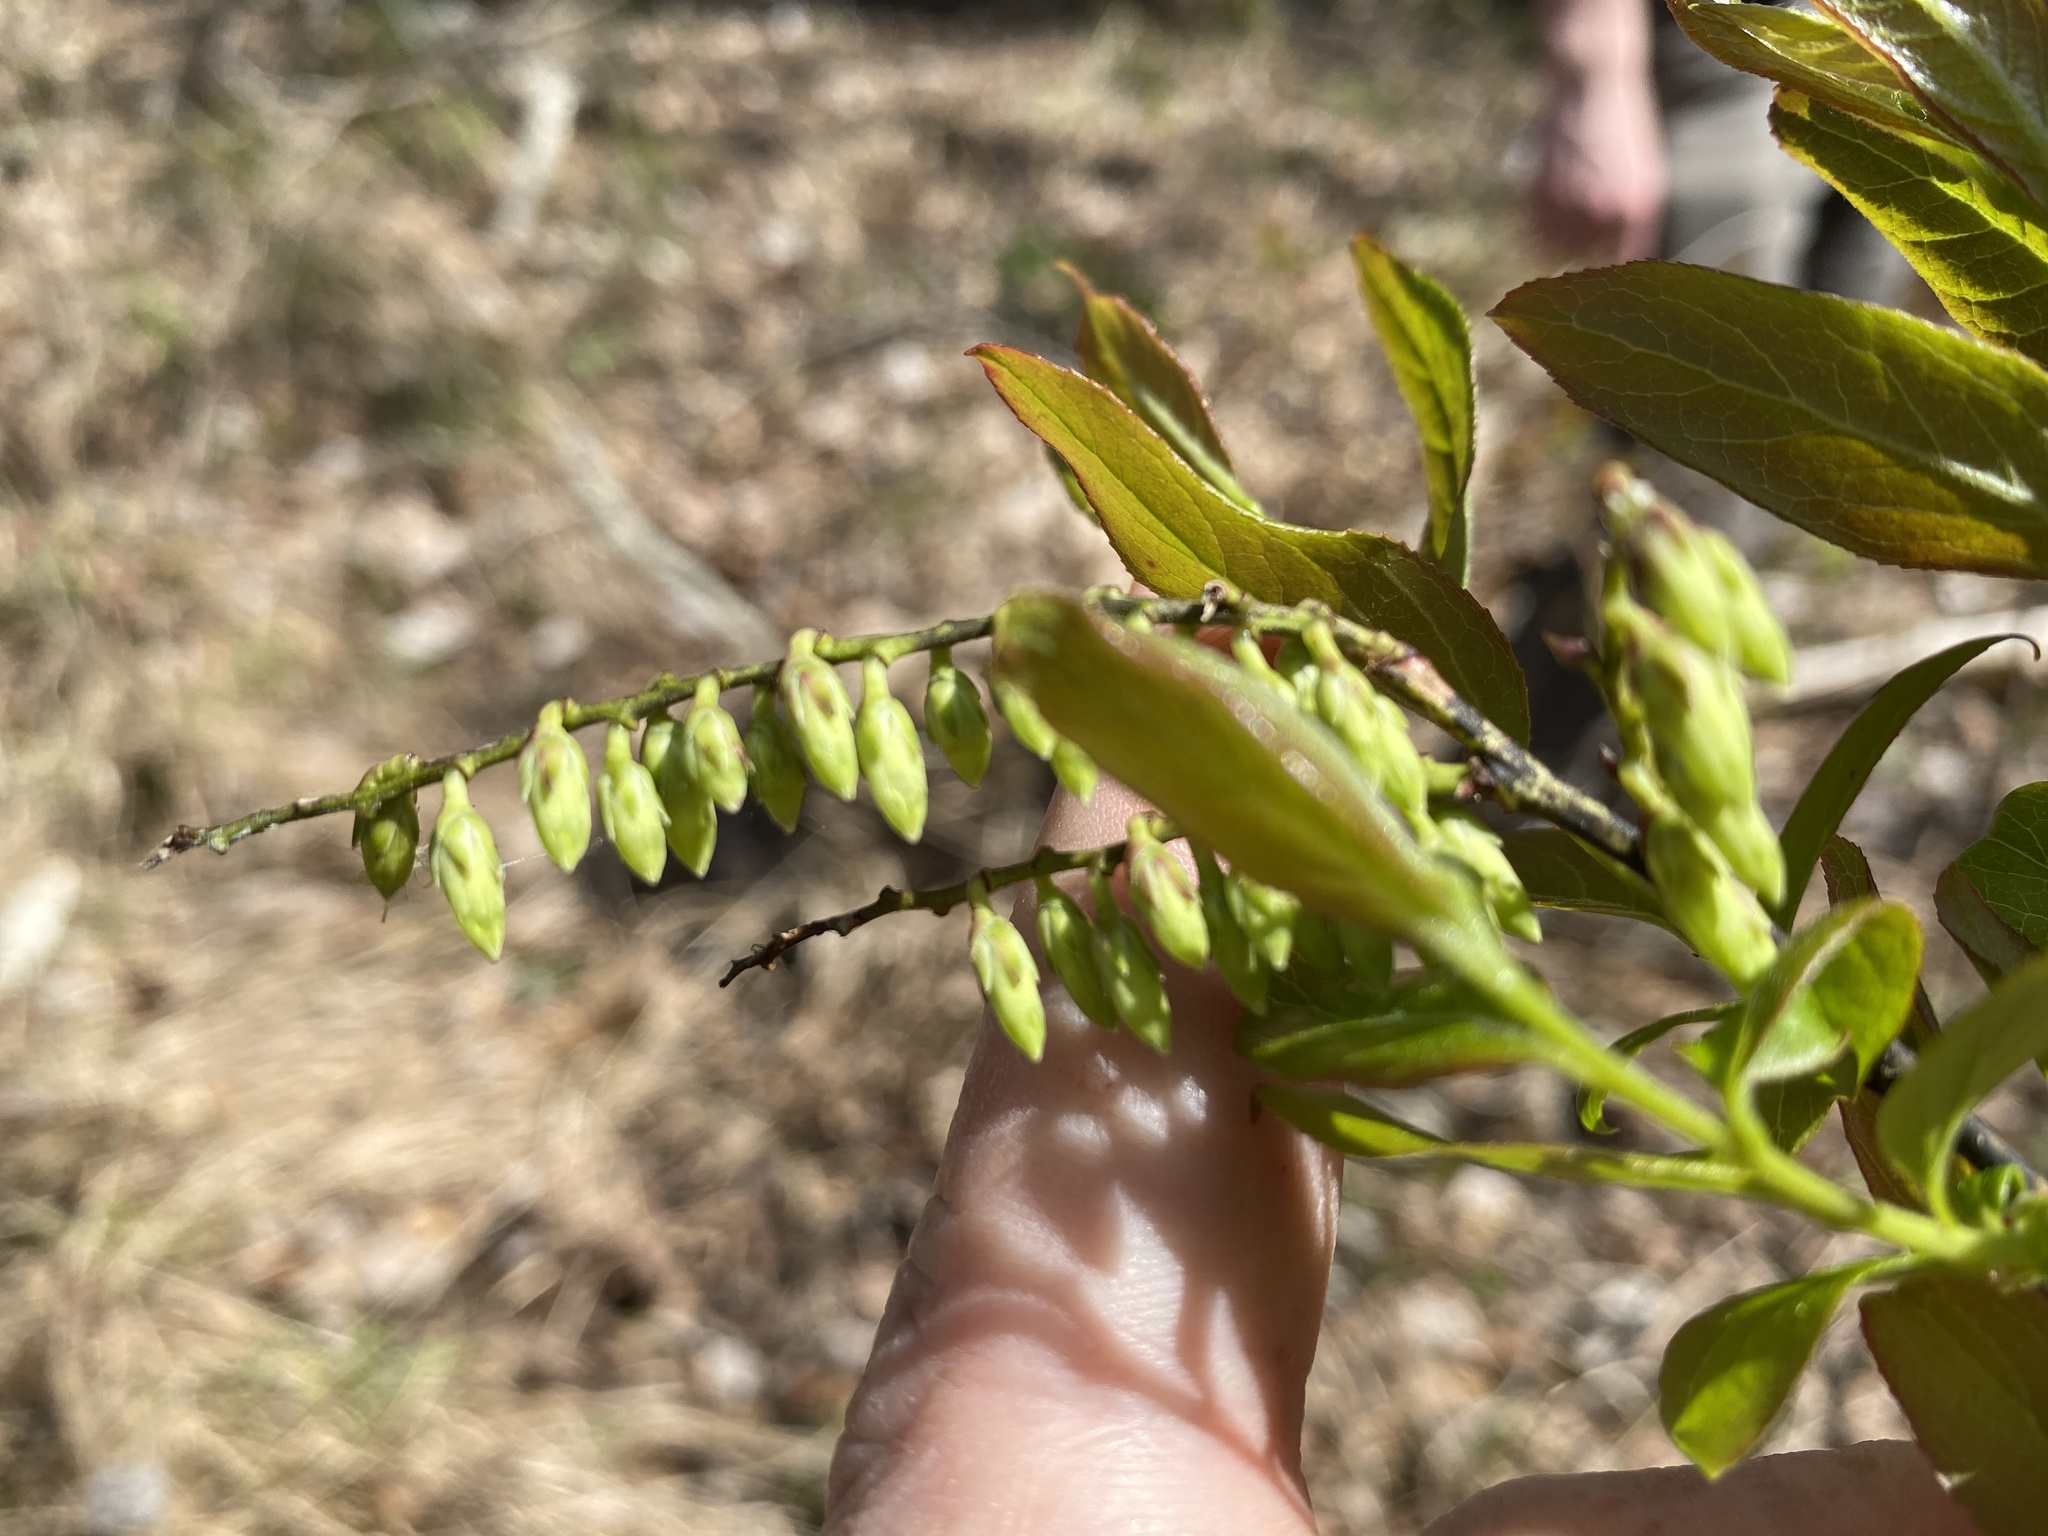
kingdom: Plantae
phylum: Tracheophyta
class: Magnoliopsida
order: Ericales
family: Ericaceae
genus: Eubotrys
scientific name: Eubotrys racemosa
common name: Fetterbush
